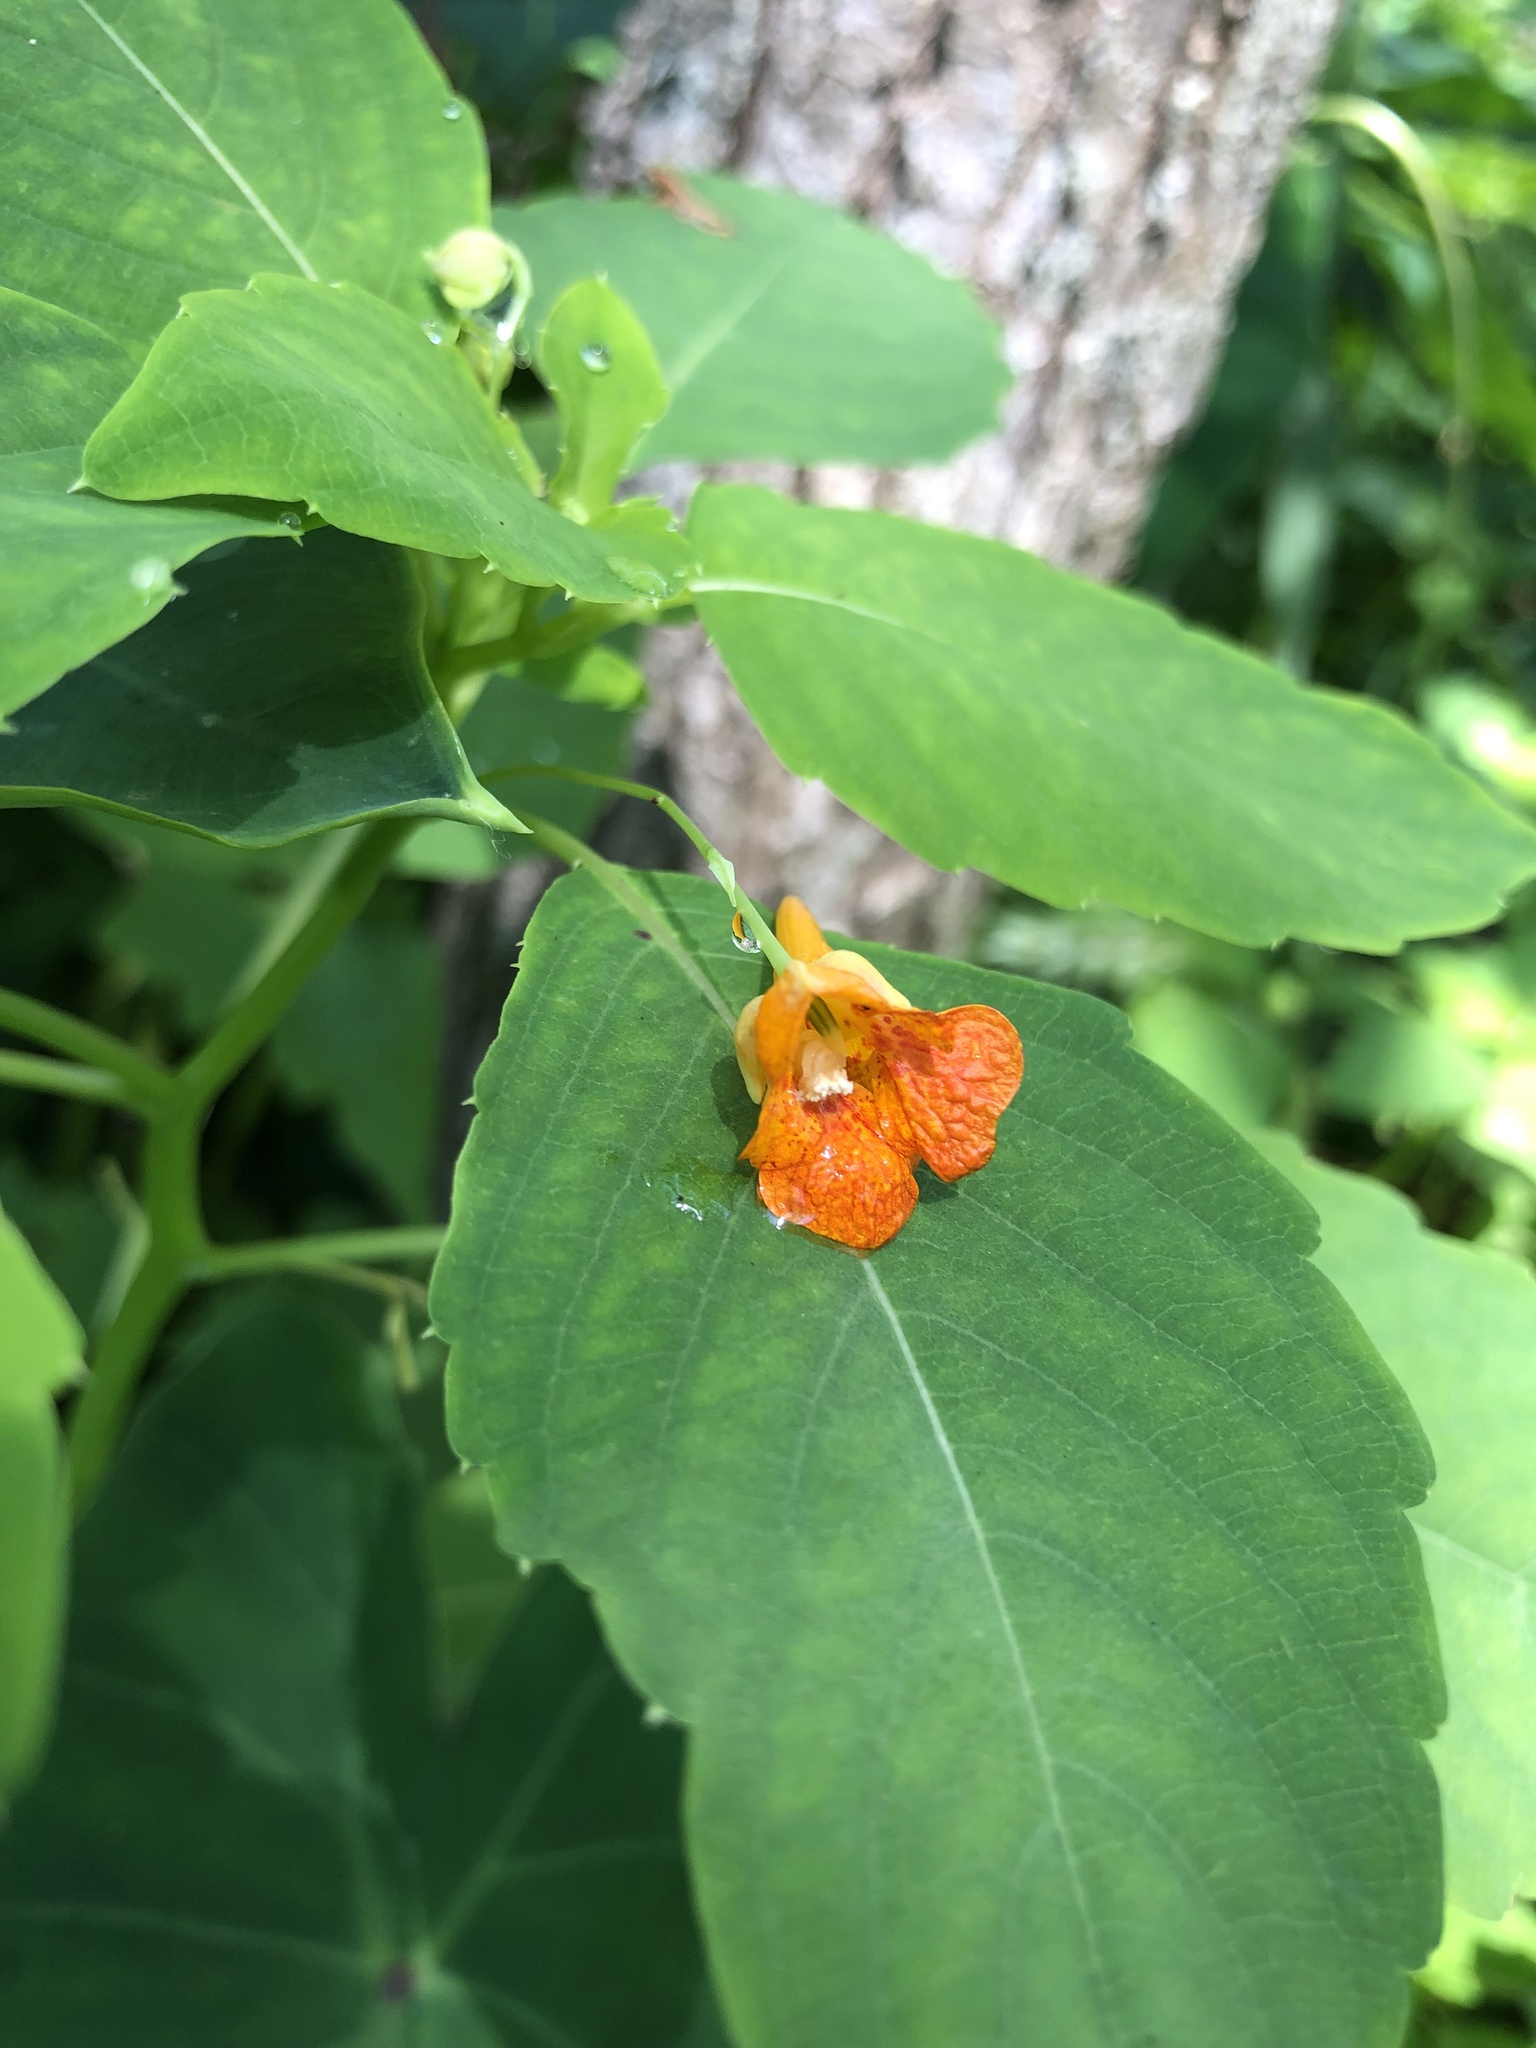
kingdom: Plantae
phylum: Tracheophyta
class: Magnoliopsida
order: Ericales
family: Balsaminaceae
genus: Impatiens
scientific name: Impatiens capensis
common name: Orange balsam
